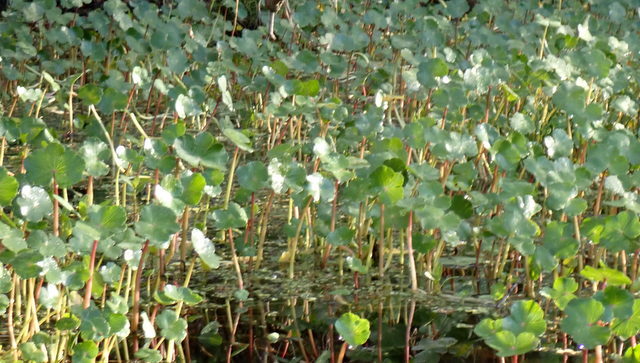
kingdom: Plantae
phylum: Tracheophyta
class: Magnoliopsida
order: Apiales
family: Araliaceae
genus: Hydrocotyle
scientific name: Hydrocotyle ranunculoides
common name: Floating pennywort
